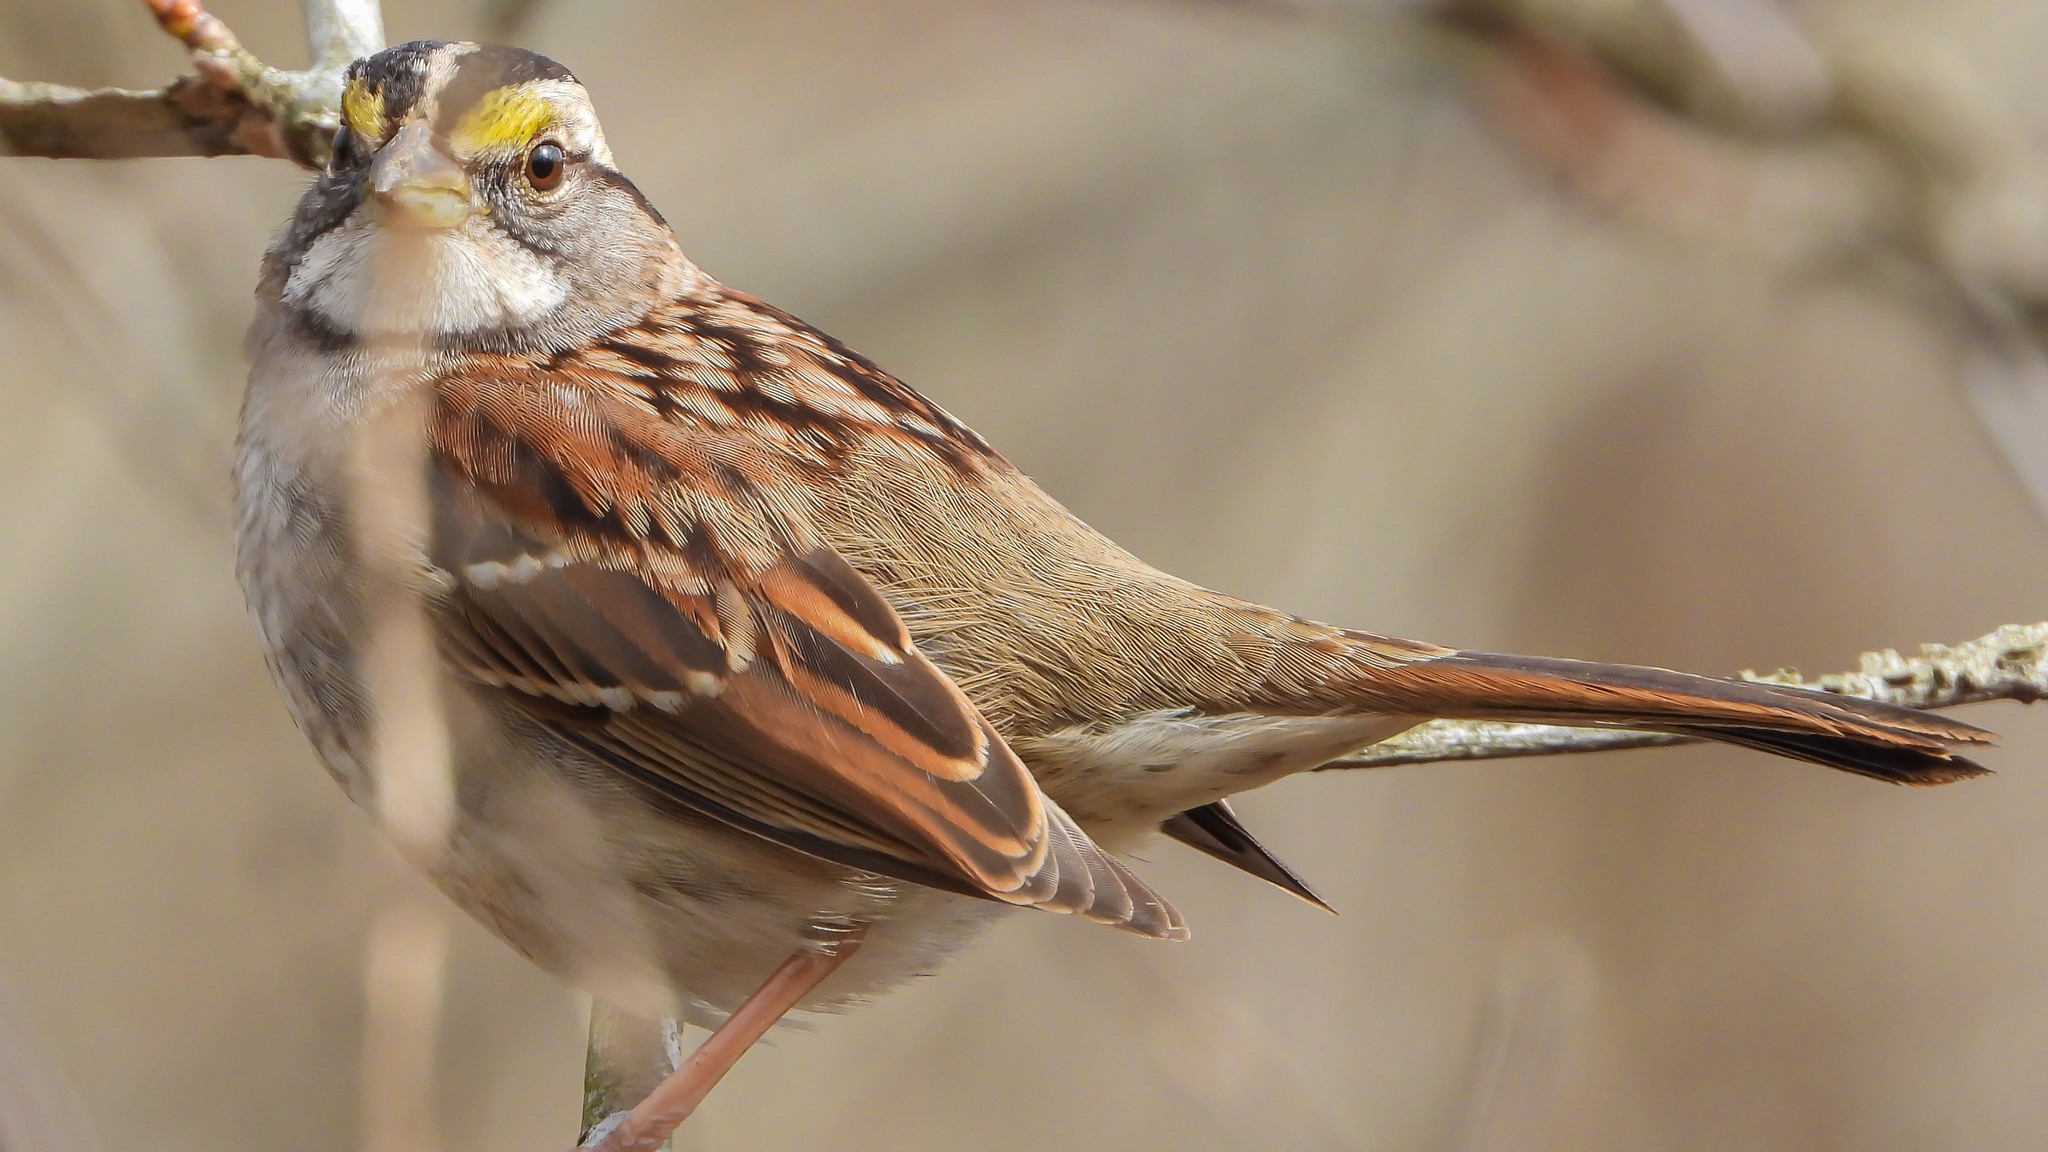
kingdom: Animalia
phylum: Chordata
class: Aves
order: Passeriformes
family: Passerellidae
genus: Zonotrichia
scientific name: Zonotrichia albicollis
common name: White-throated sparrow
